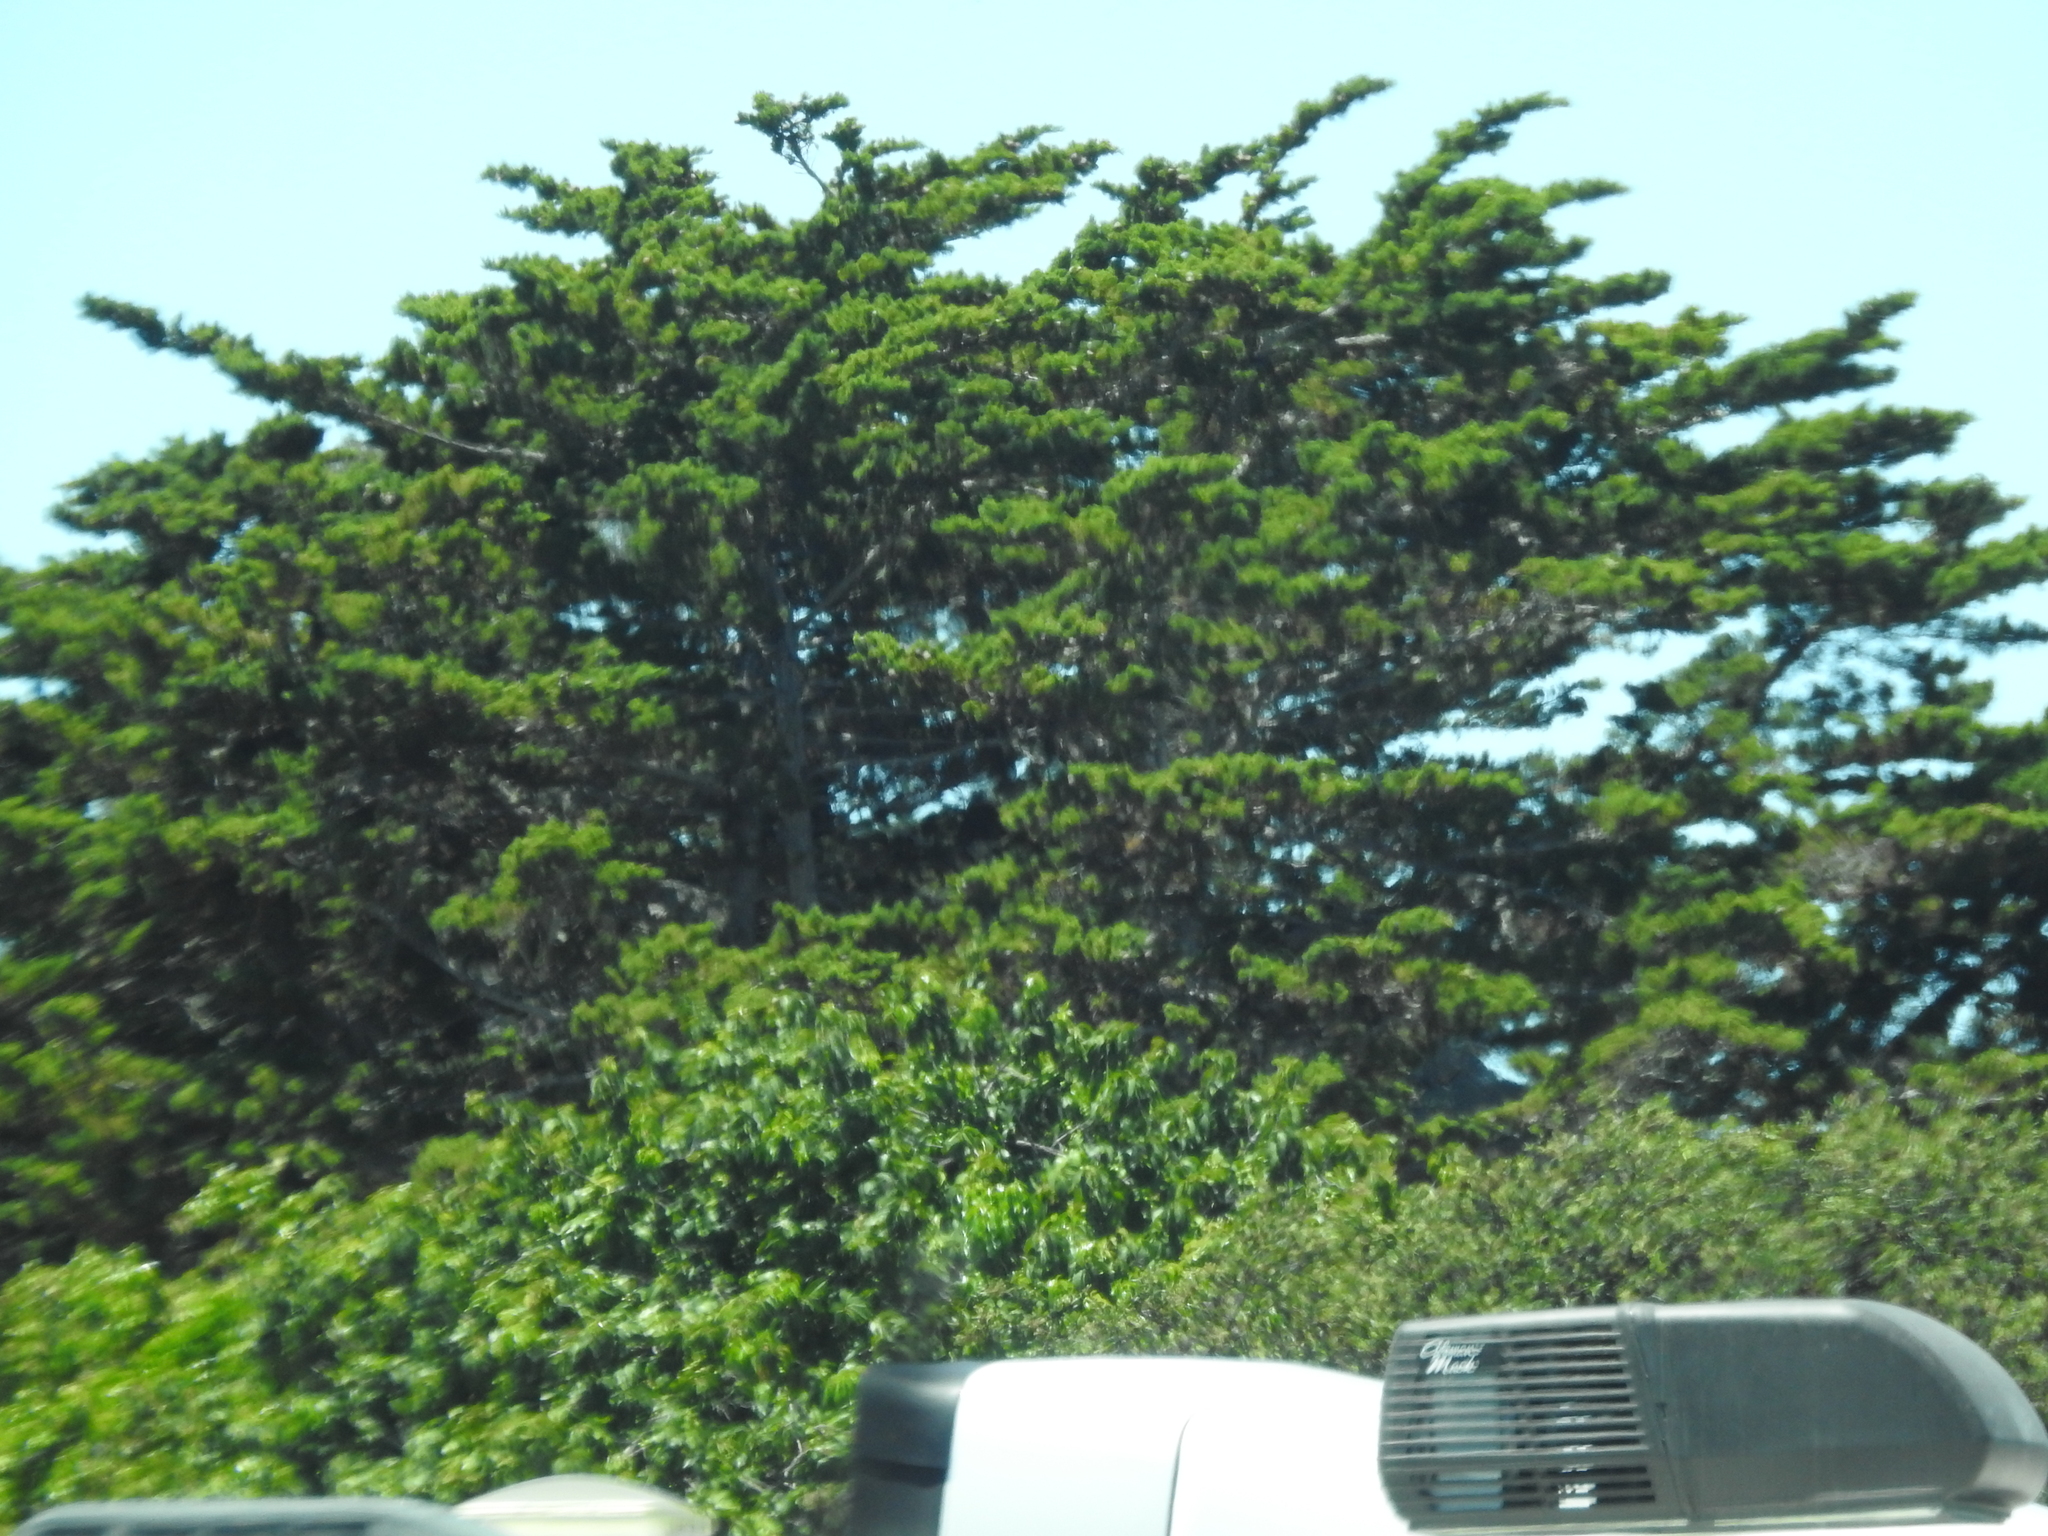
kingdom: Plantae
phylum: Tracheophyta
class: Pinopsida
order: Pinales
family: Cupressaceae
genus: Cupressus
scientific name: Cupressus macrocarpa
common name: Monterey cypress
